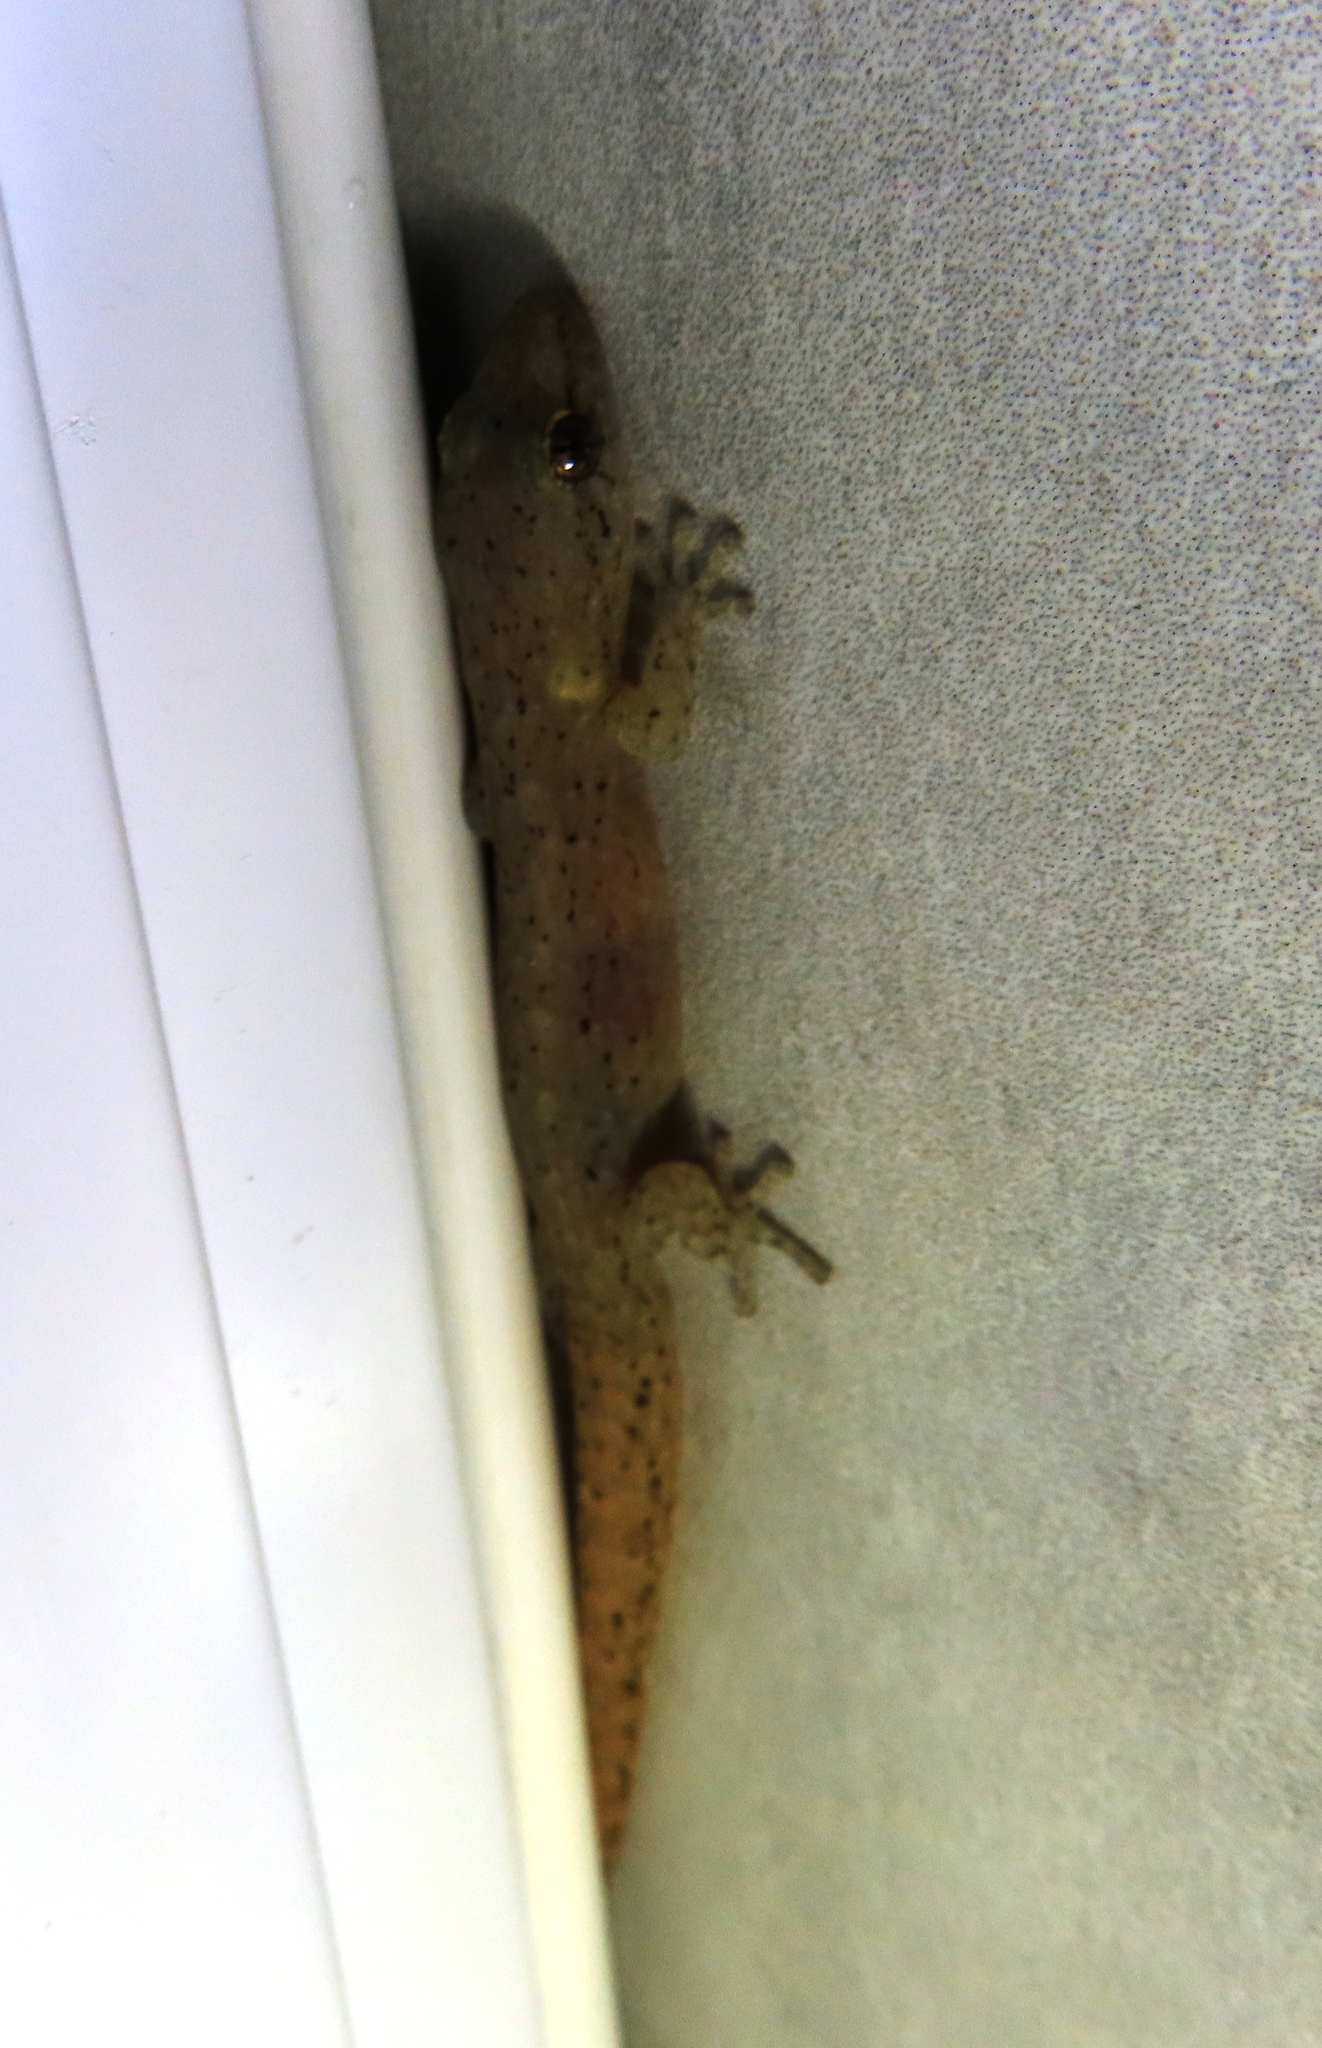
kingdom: Animalia
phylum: Chordata
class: Squamata
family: Gekkonidae
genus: Afrogecko
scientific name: Afrogecko porphyreus
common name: Marbled leaf-toed gecko
